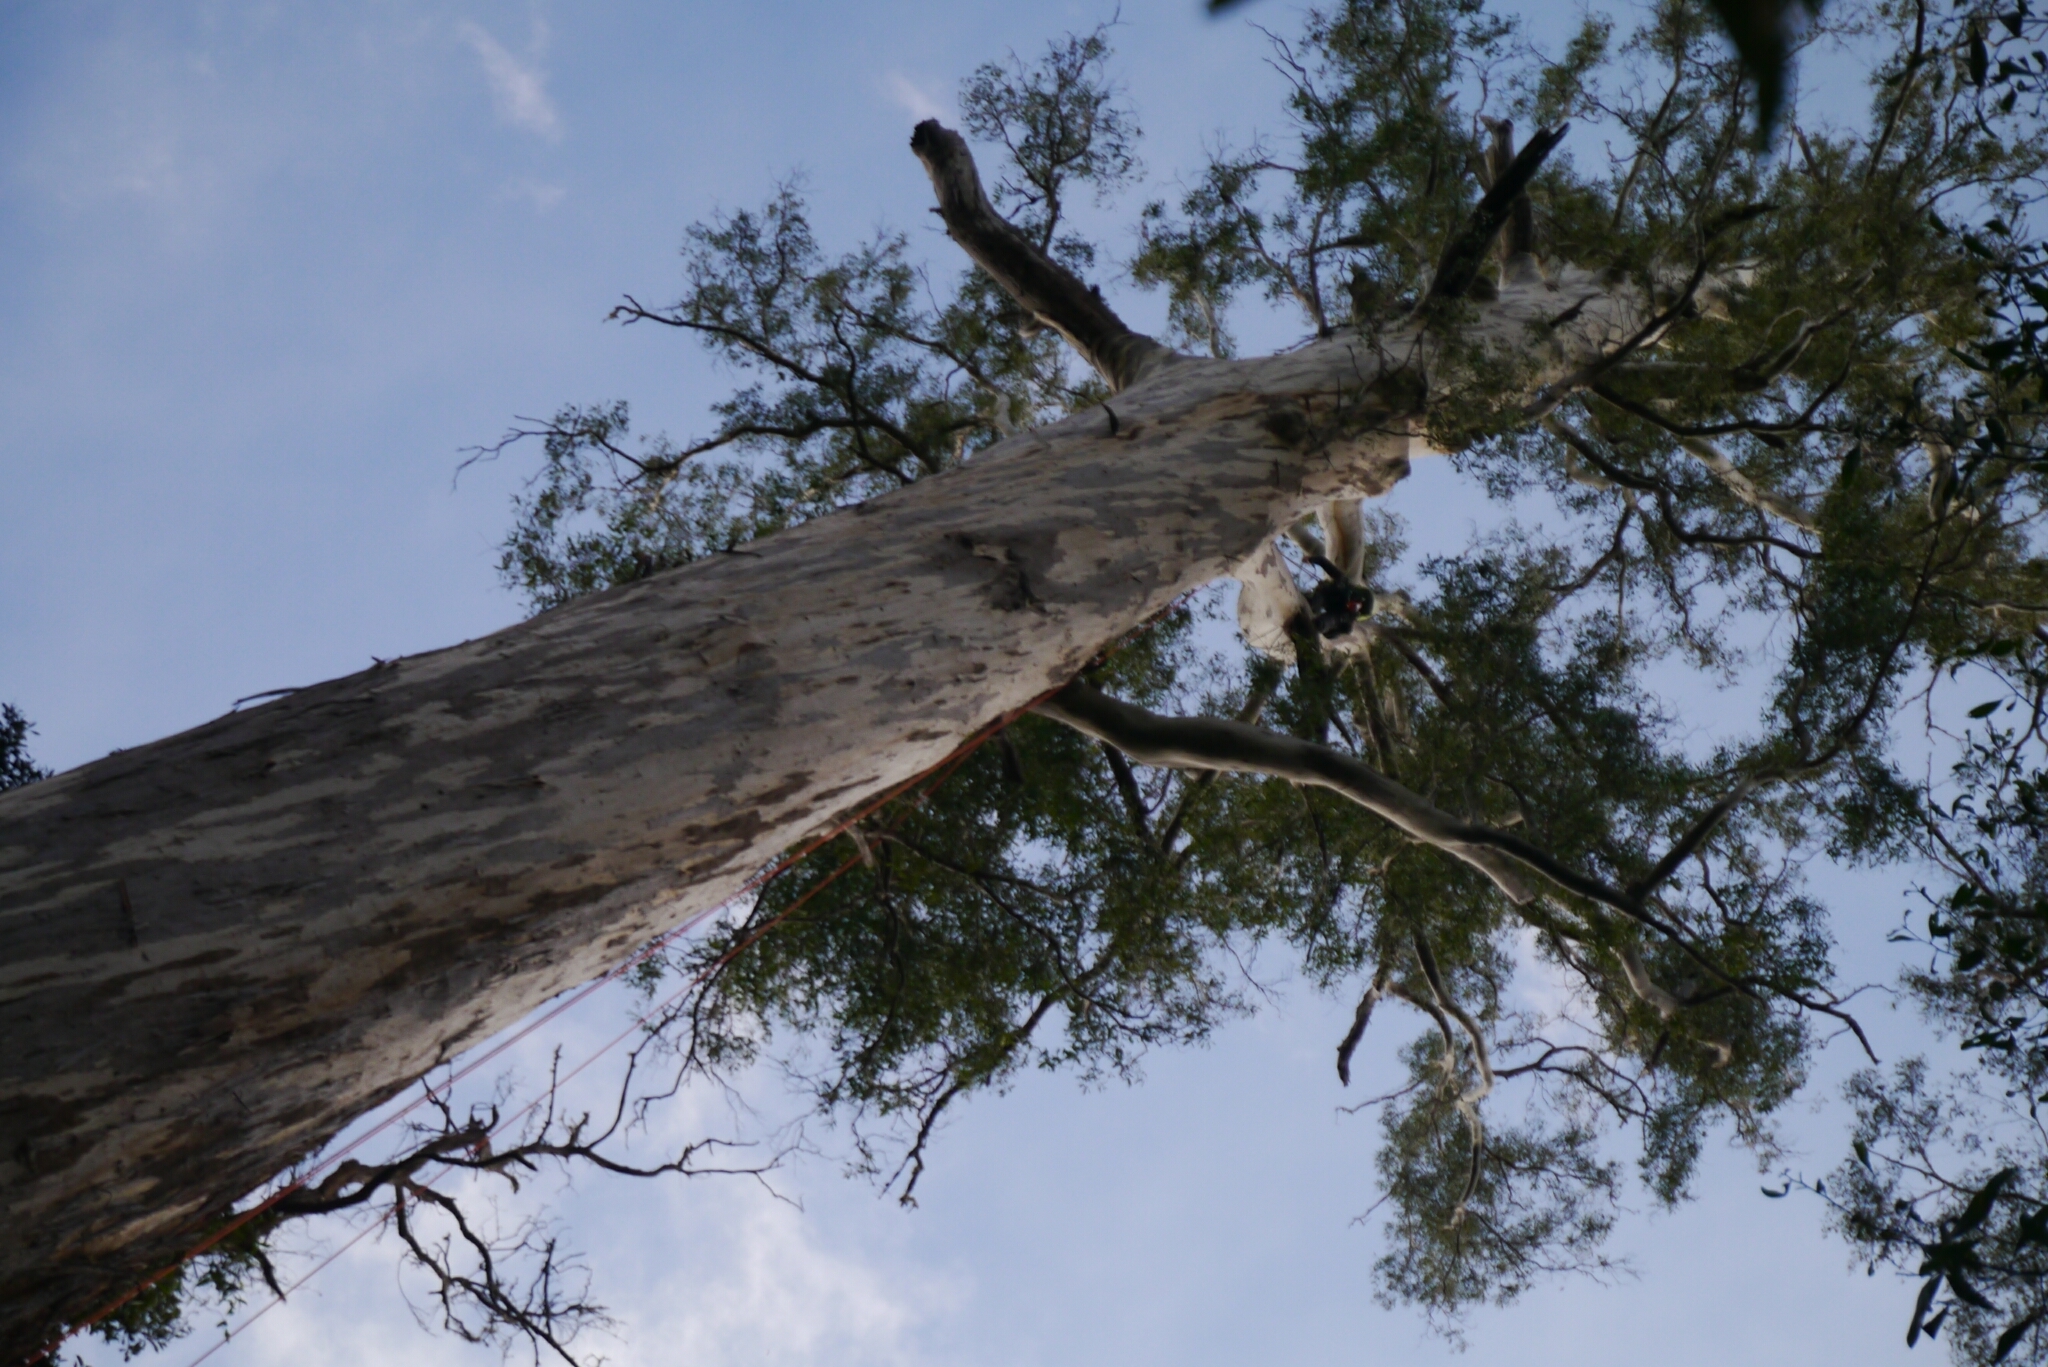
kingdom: Plantae
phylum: Tracheophyta
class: Magnoliopsida
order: Myrtales
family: Myrtaceae
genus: Eucalyptus
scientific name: Eucalyptus viminalis
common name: Manna gum
